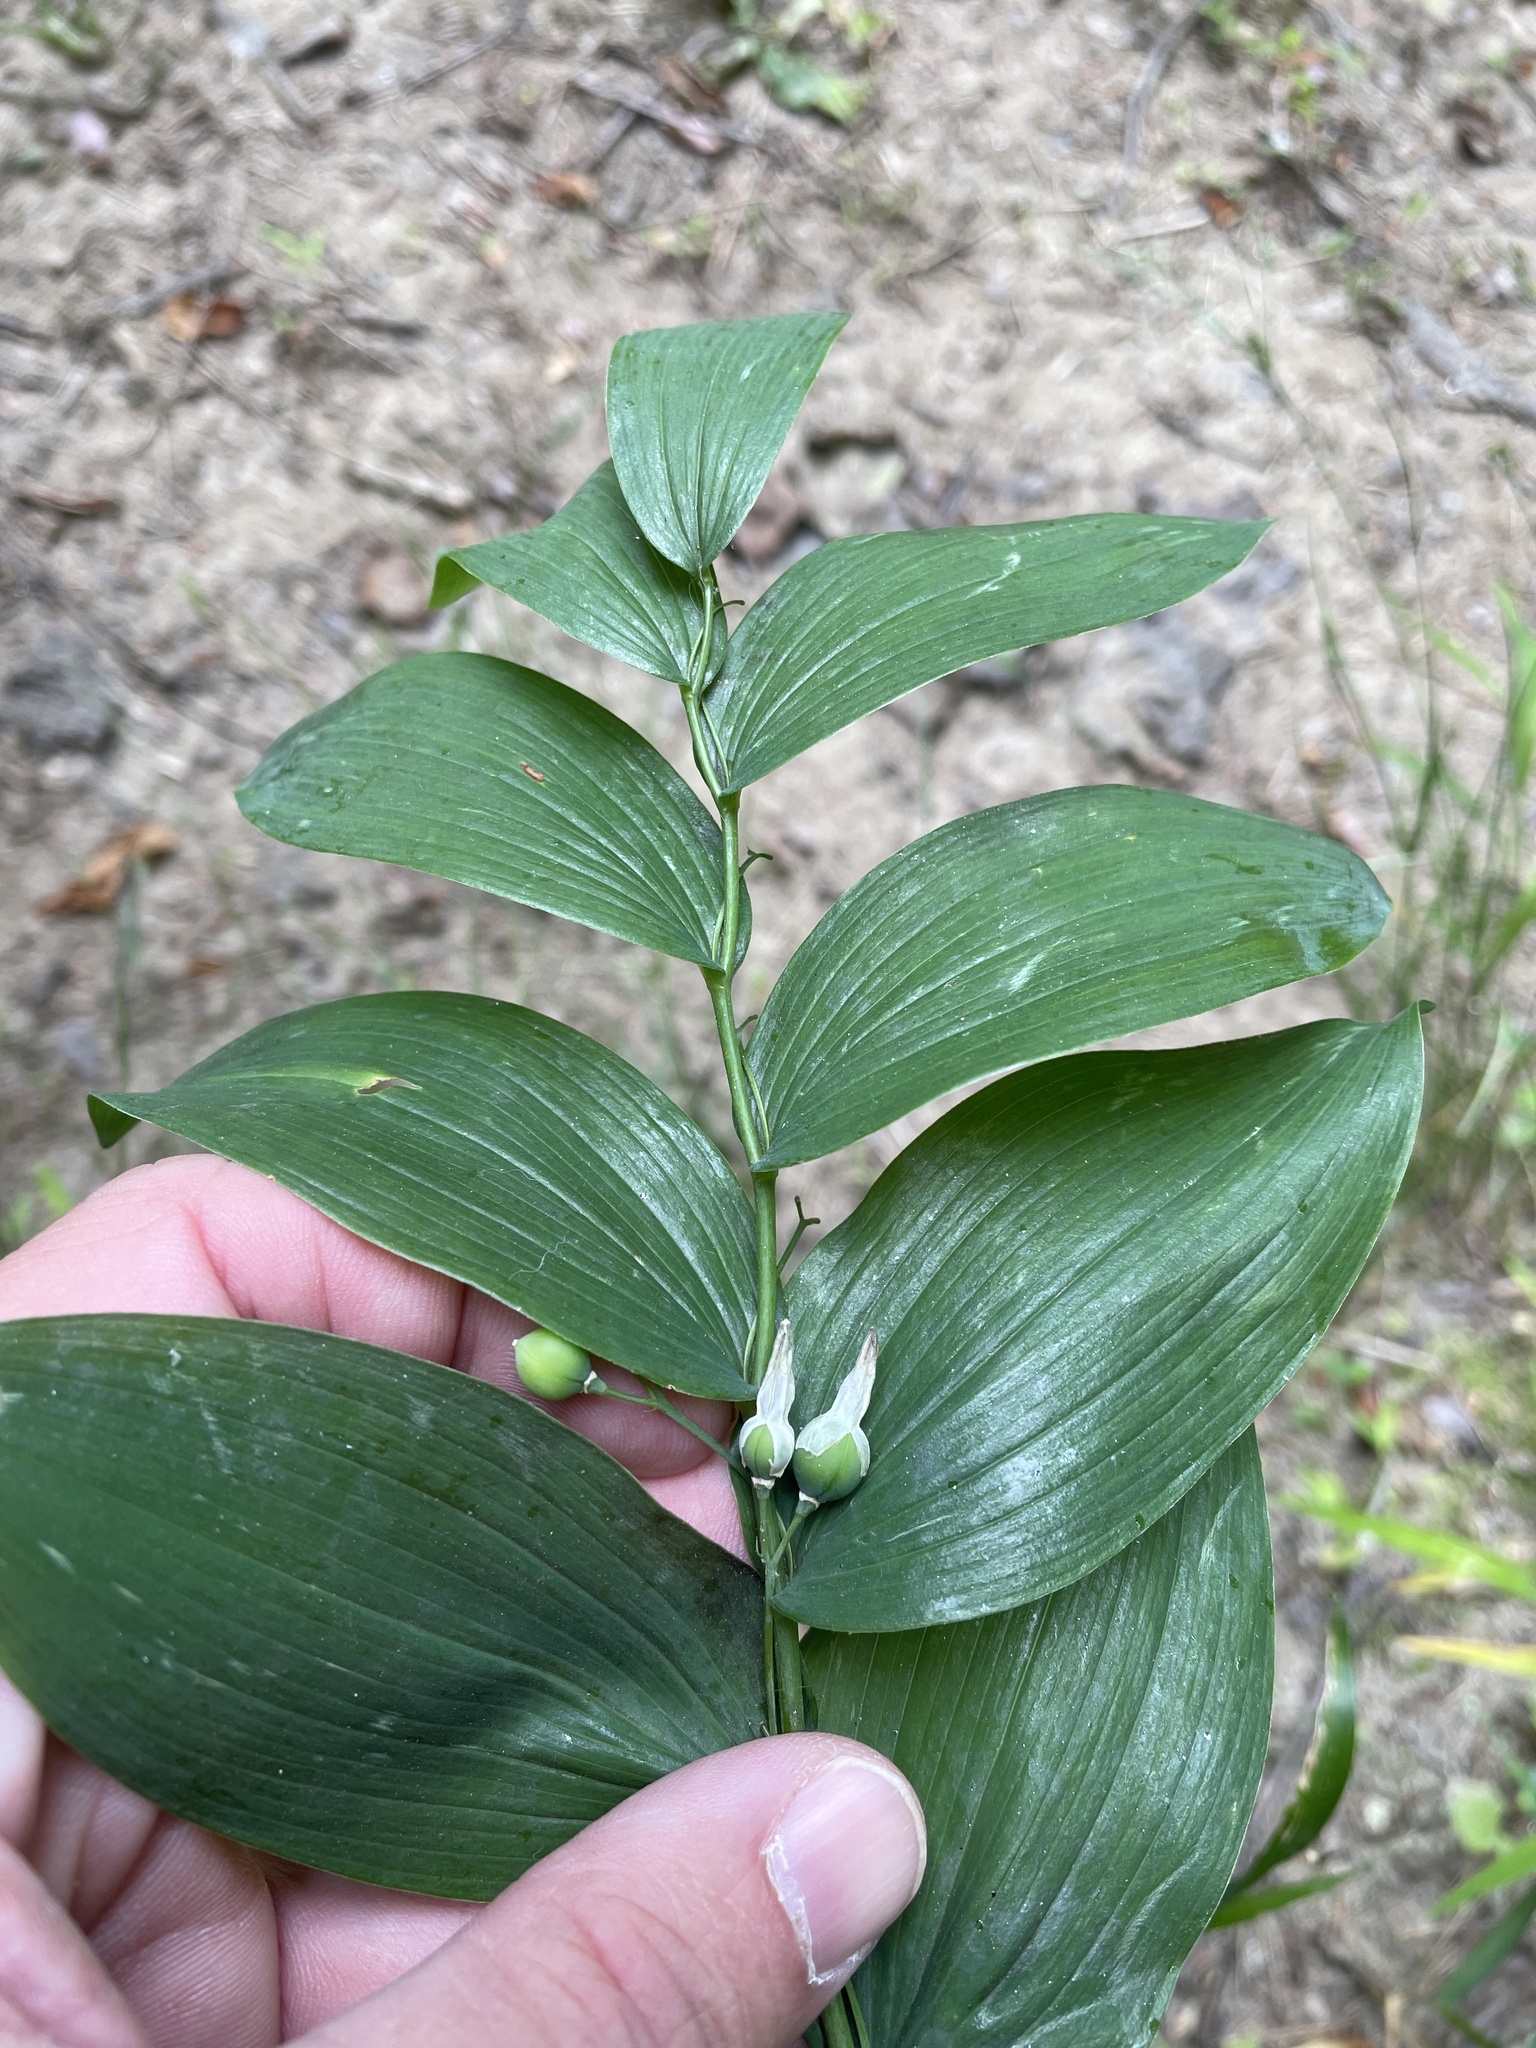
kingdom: Plantae
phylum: Tracheophyta
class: Liliopsida
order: Asparagales
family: Asparagaceae
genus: Polygonatum
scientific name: Polygonatum biflorum
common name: American solomon's-seal
